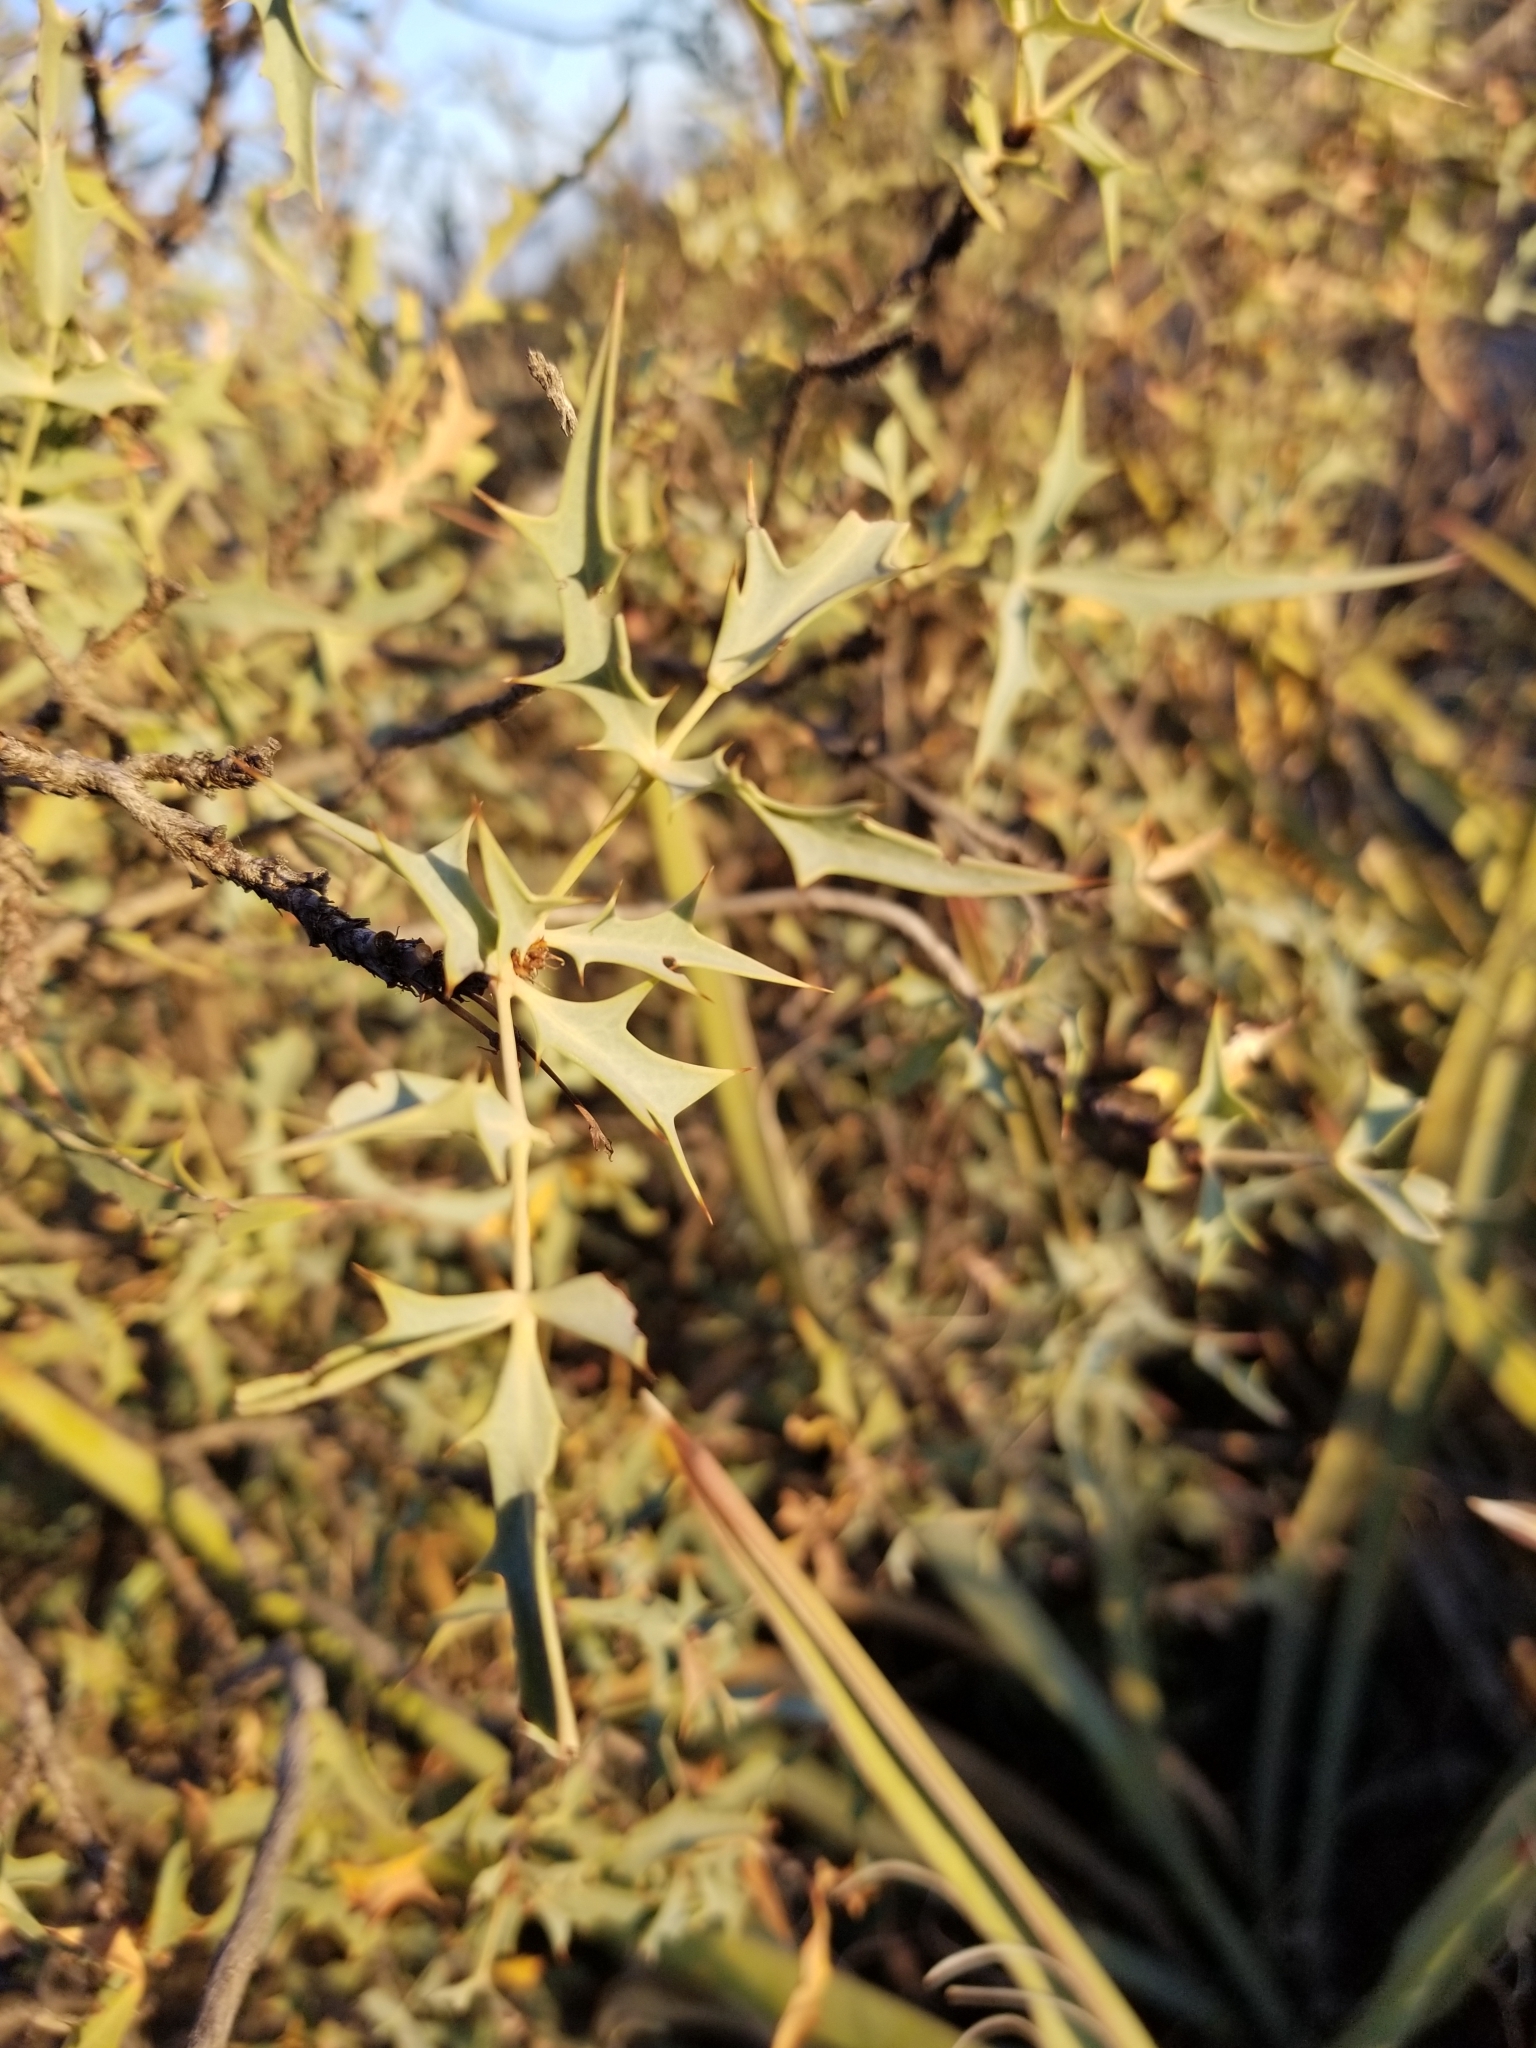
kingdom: Plantae
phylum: Tracheophyta
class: Magnoliopsida
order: Ranunculales
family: Berberidaceae
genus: Alloberberis
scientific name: Alloberberis fremontii
